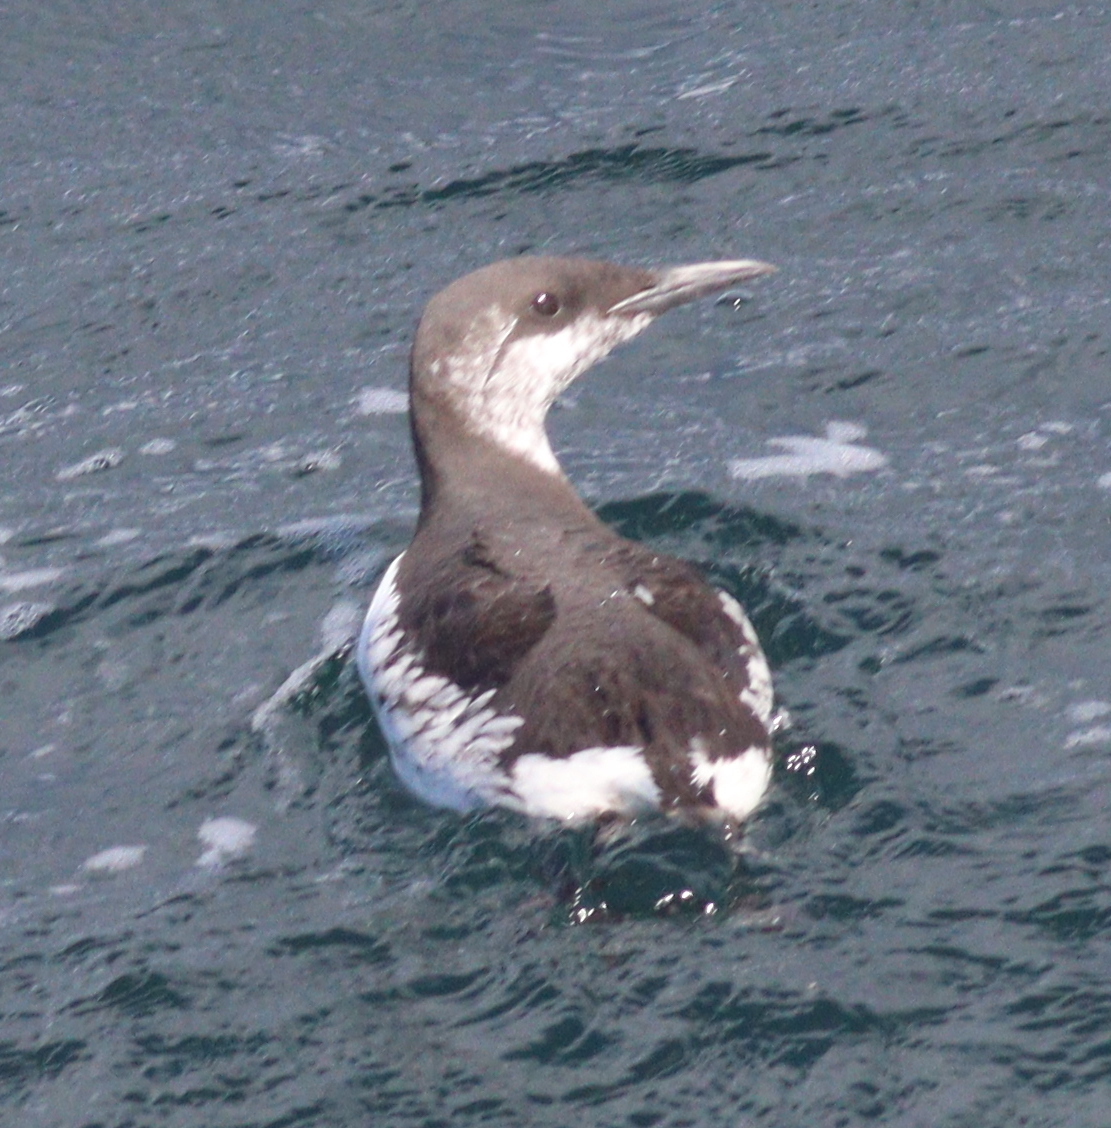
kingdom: Animalia
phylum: Chordata
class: Aves
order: Charadriiformes
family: Alcidae
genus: Uria
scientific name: Uria aalge
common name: Common murre
